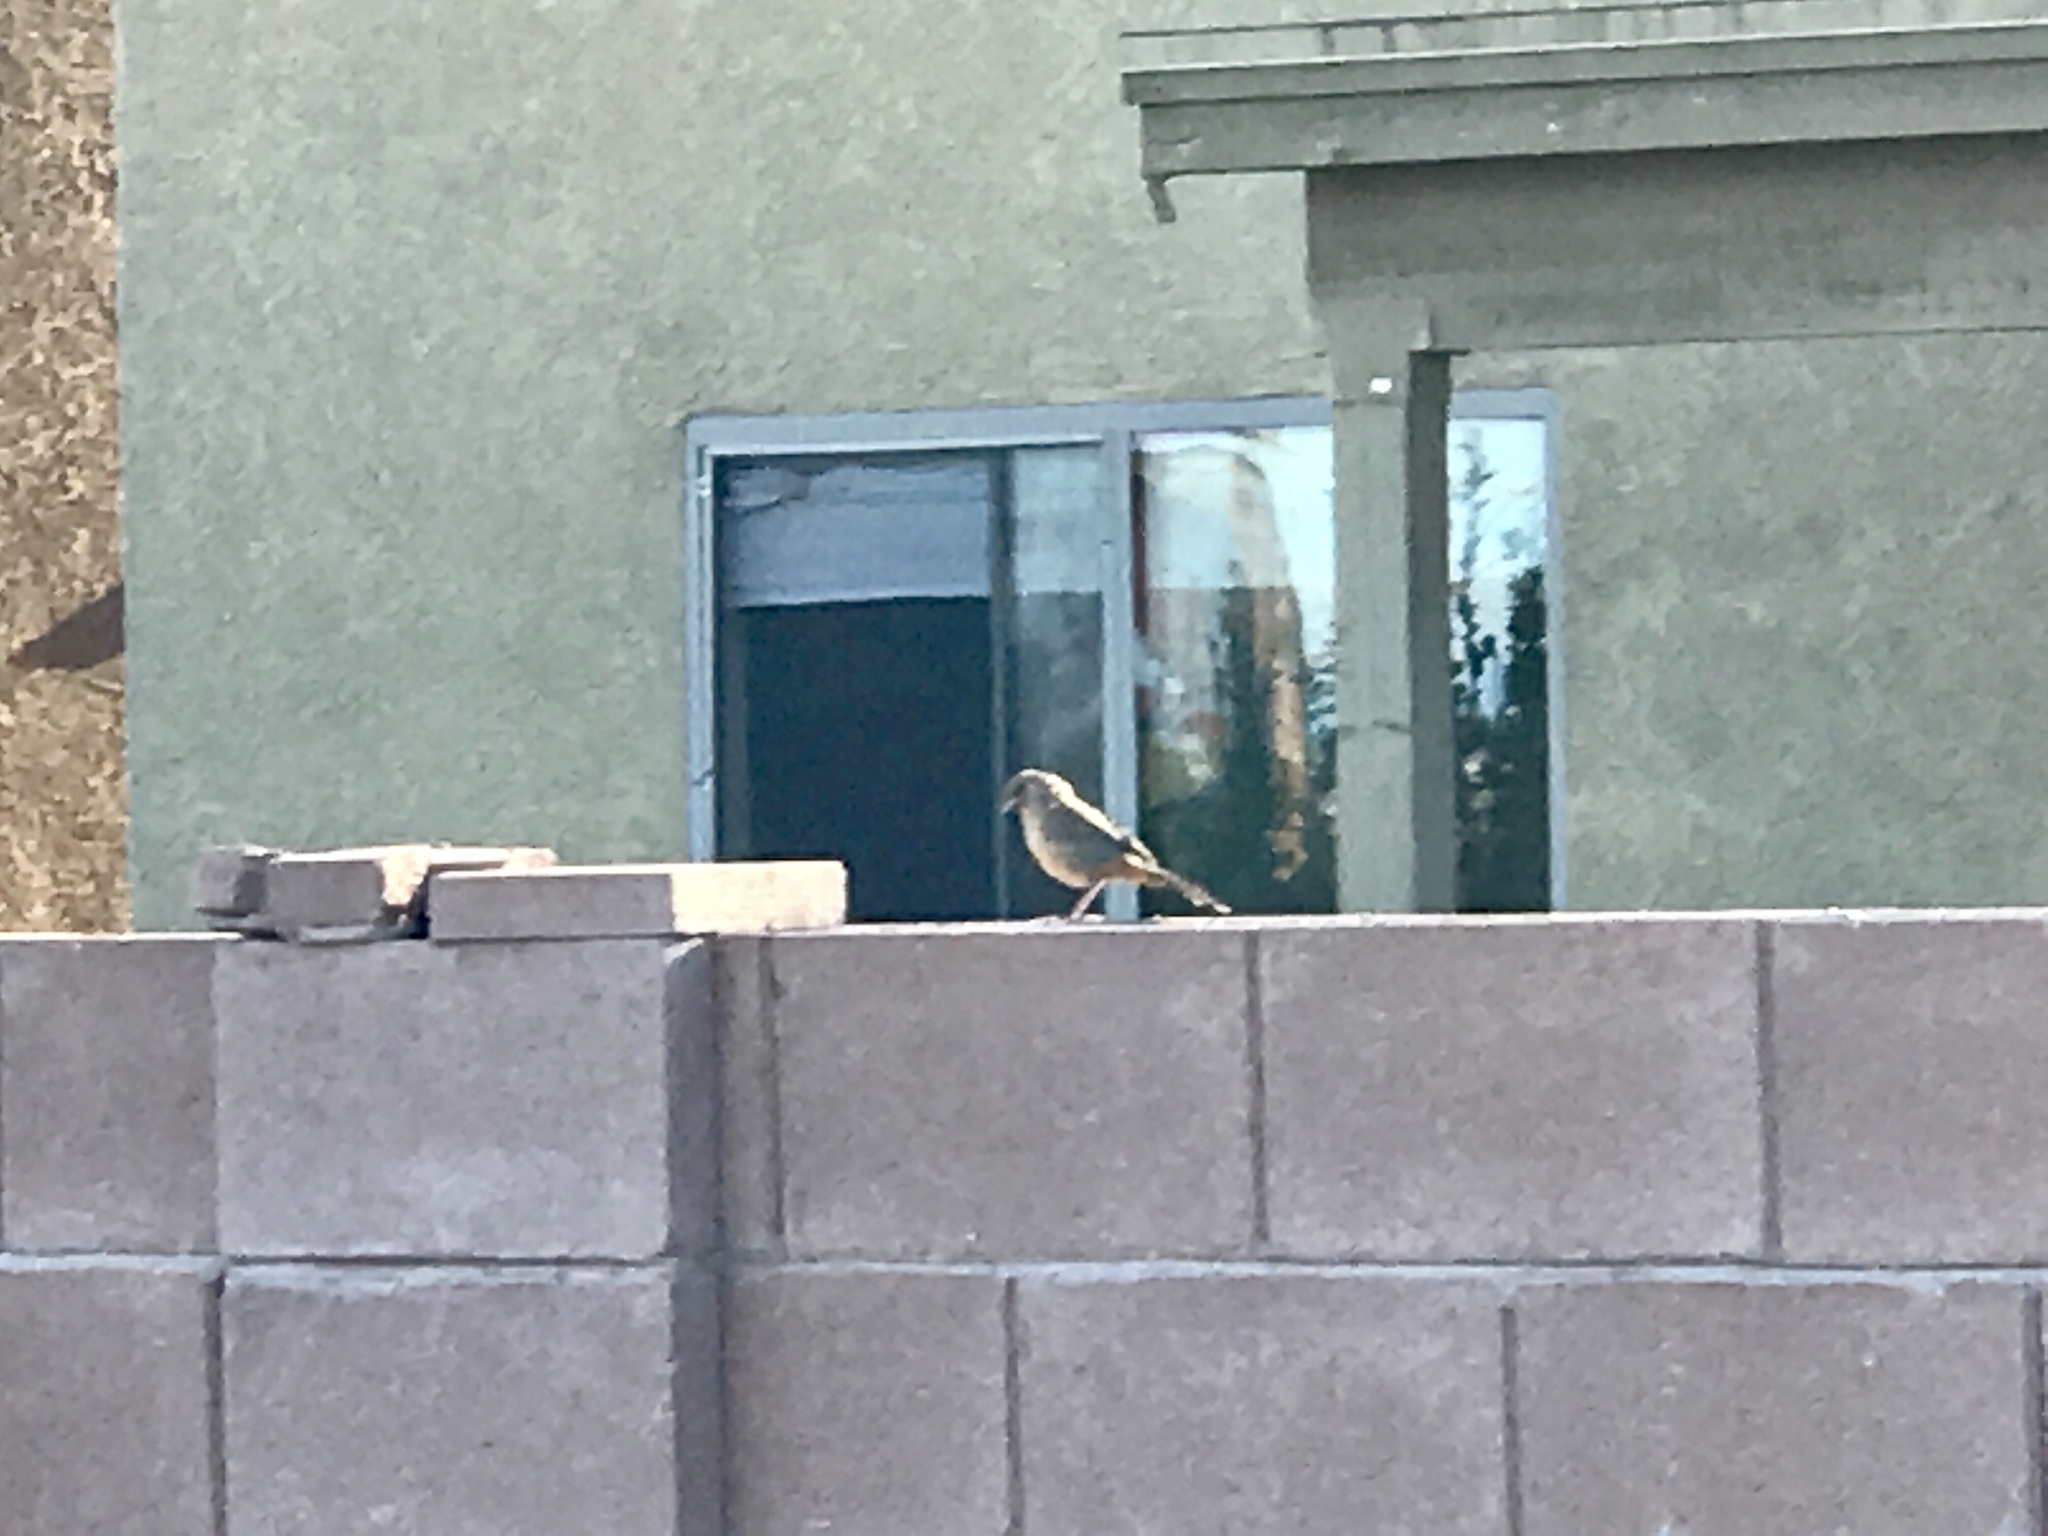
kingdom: Animalia
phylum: Chordata
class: Aves
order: Passeriformes
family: Passerellidae
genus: Melozone
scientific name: Melozone aberti
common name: Abert's towhee
